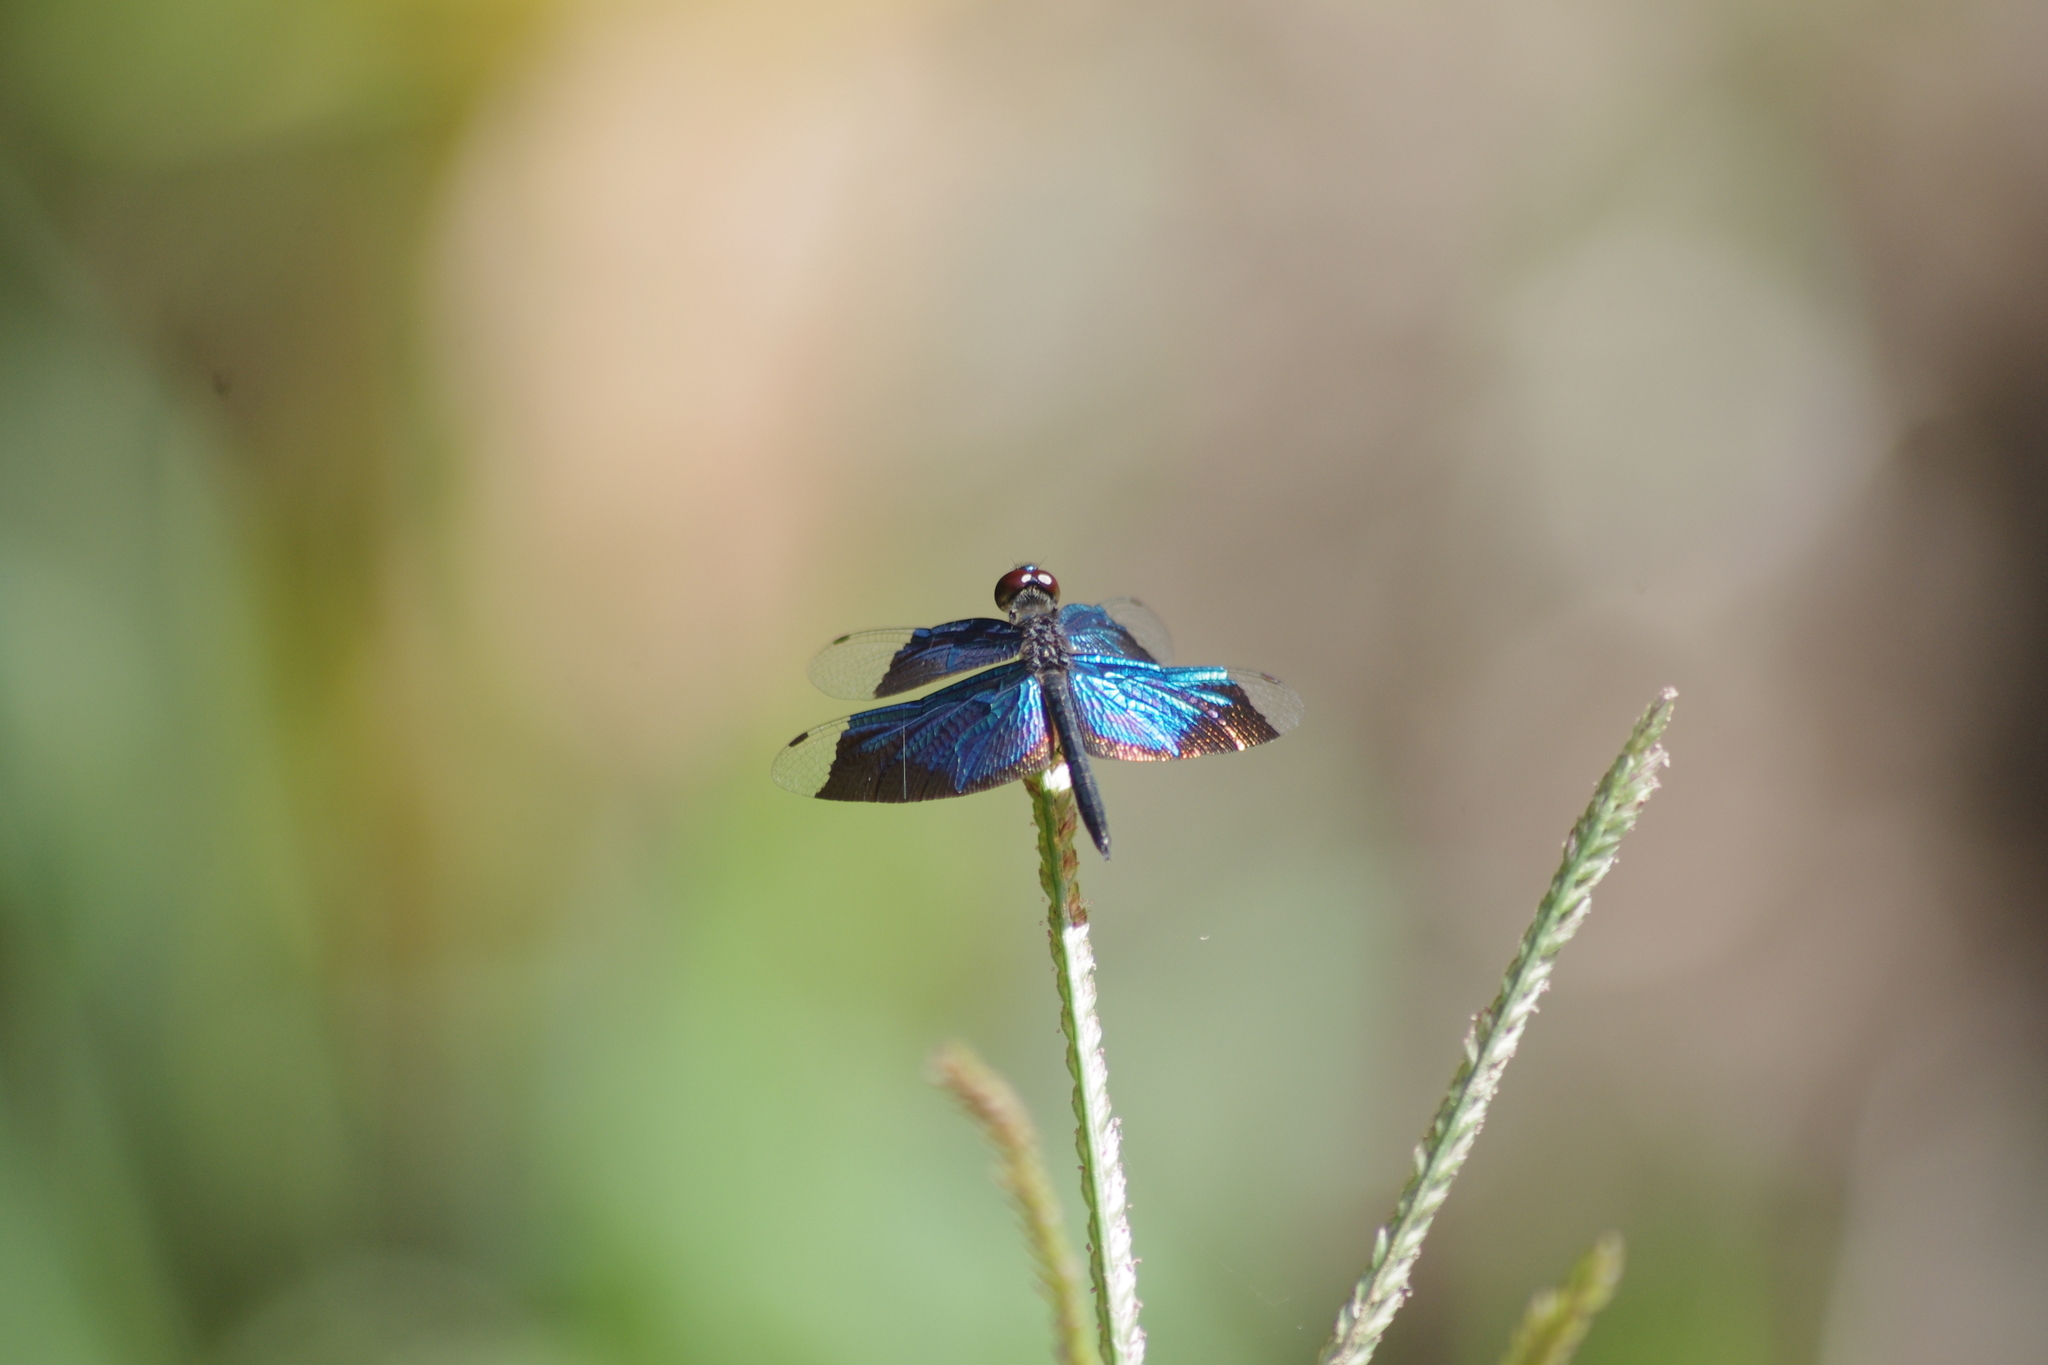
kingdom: Animalia
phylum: Arthropoda
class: Insecta
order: Odonata
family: Libellulidae
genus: Rhyothemis
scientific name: Rhyothemis resplendens
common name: Jewel flutterer
